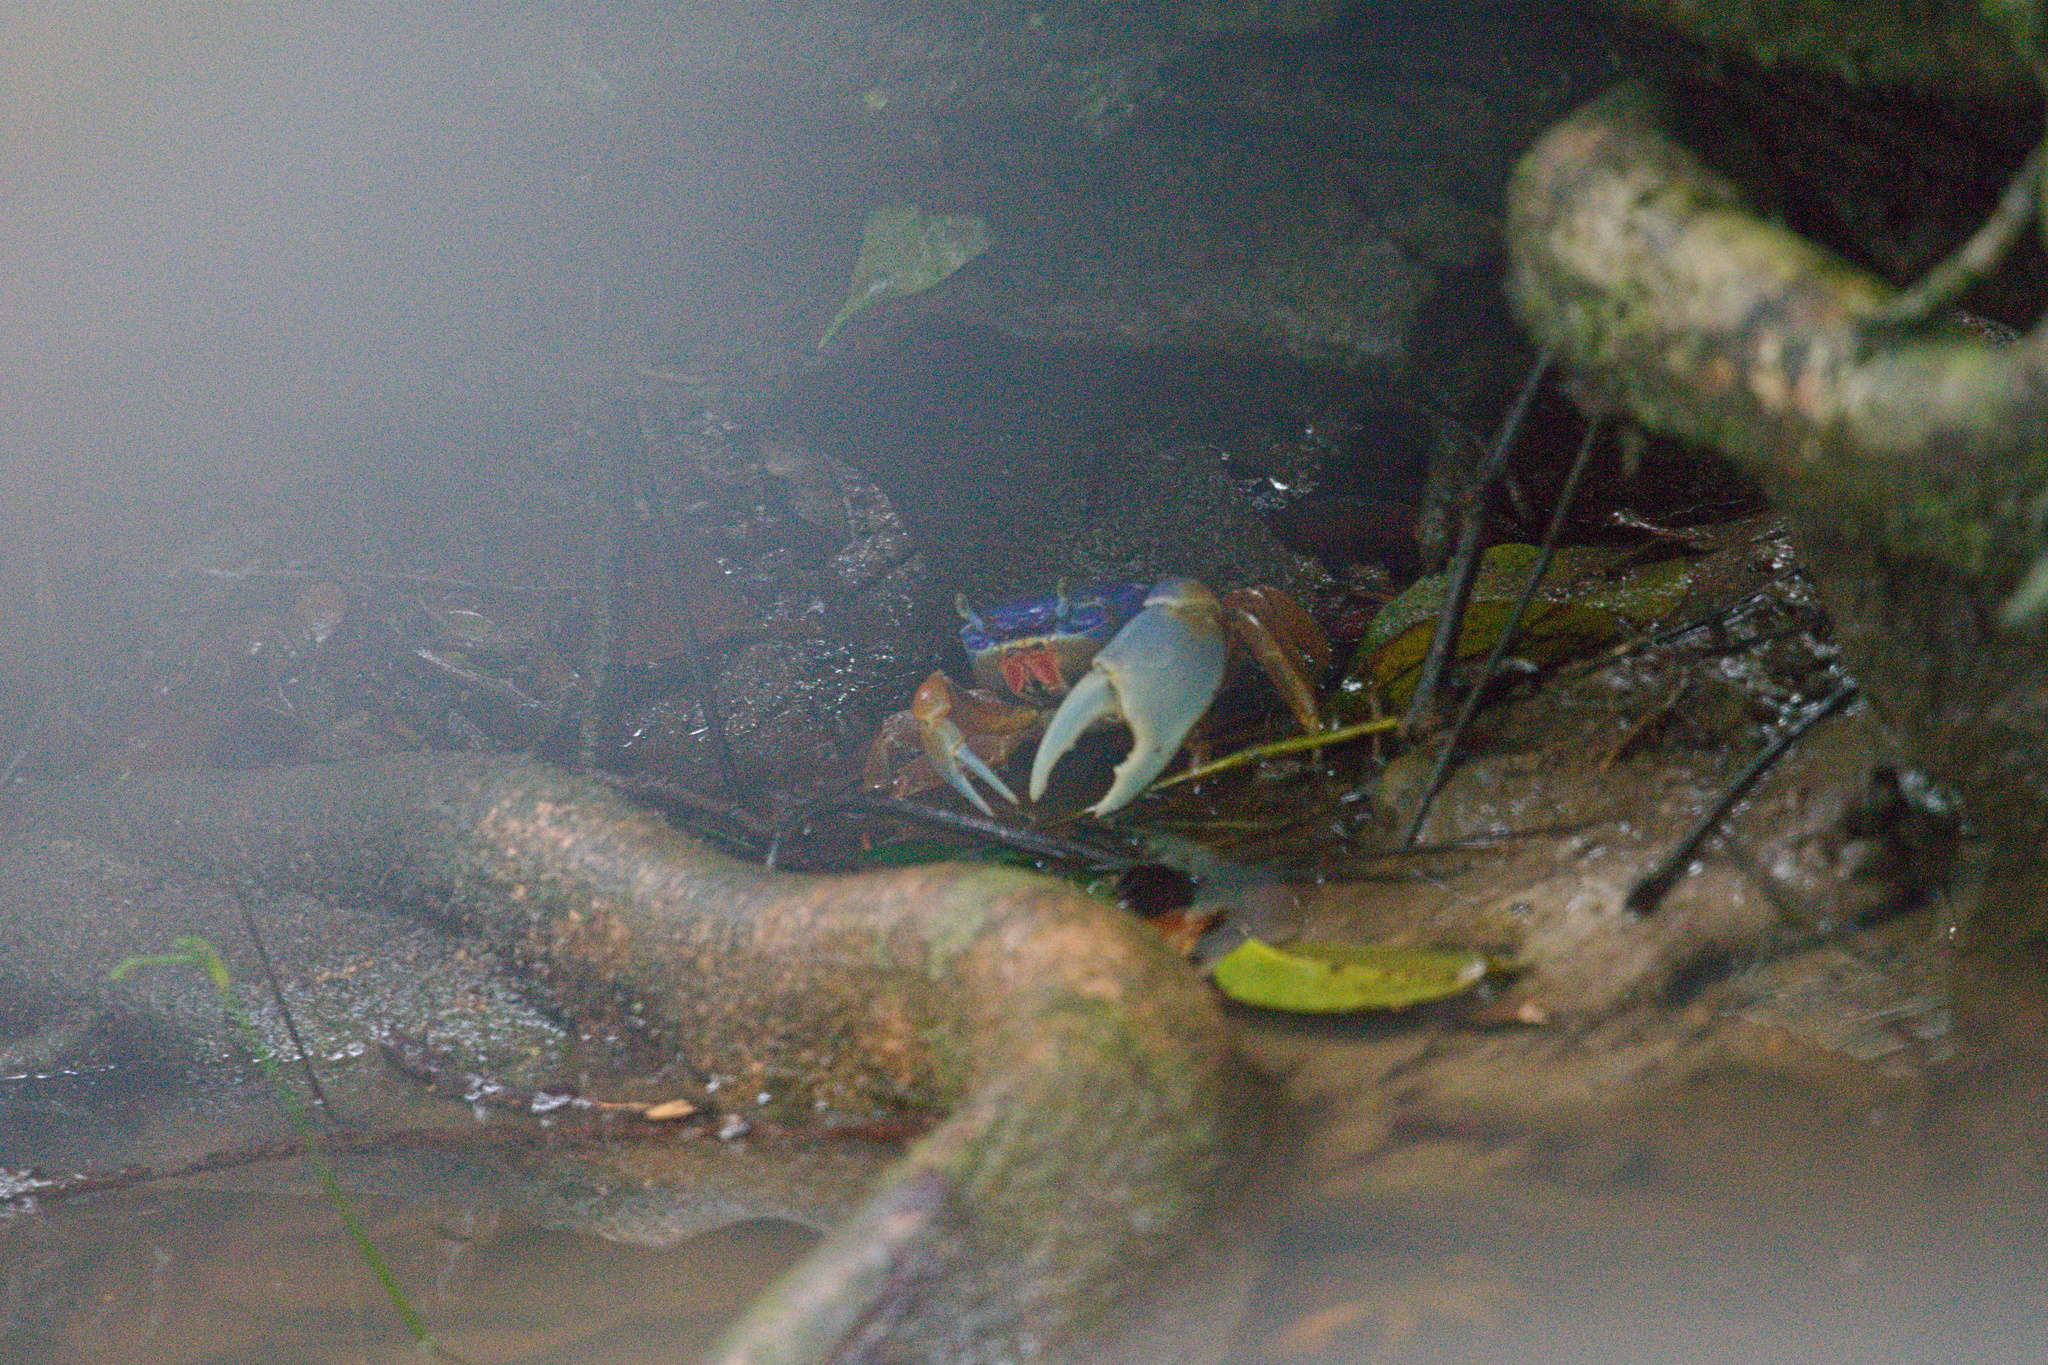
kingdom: Animalia
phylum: Arthropoda
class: Malacostraca
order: Decapoda
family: Gecarcinidae
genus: Cardisoma
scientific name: Cardisoma guanhumi
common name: Great land crab
